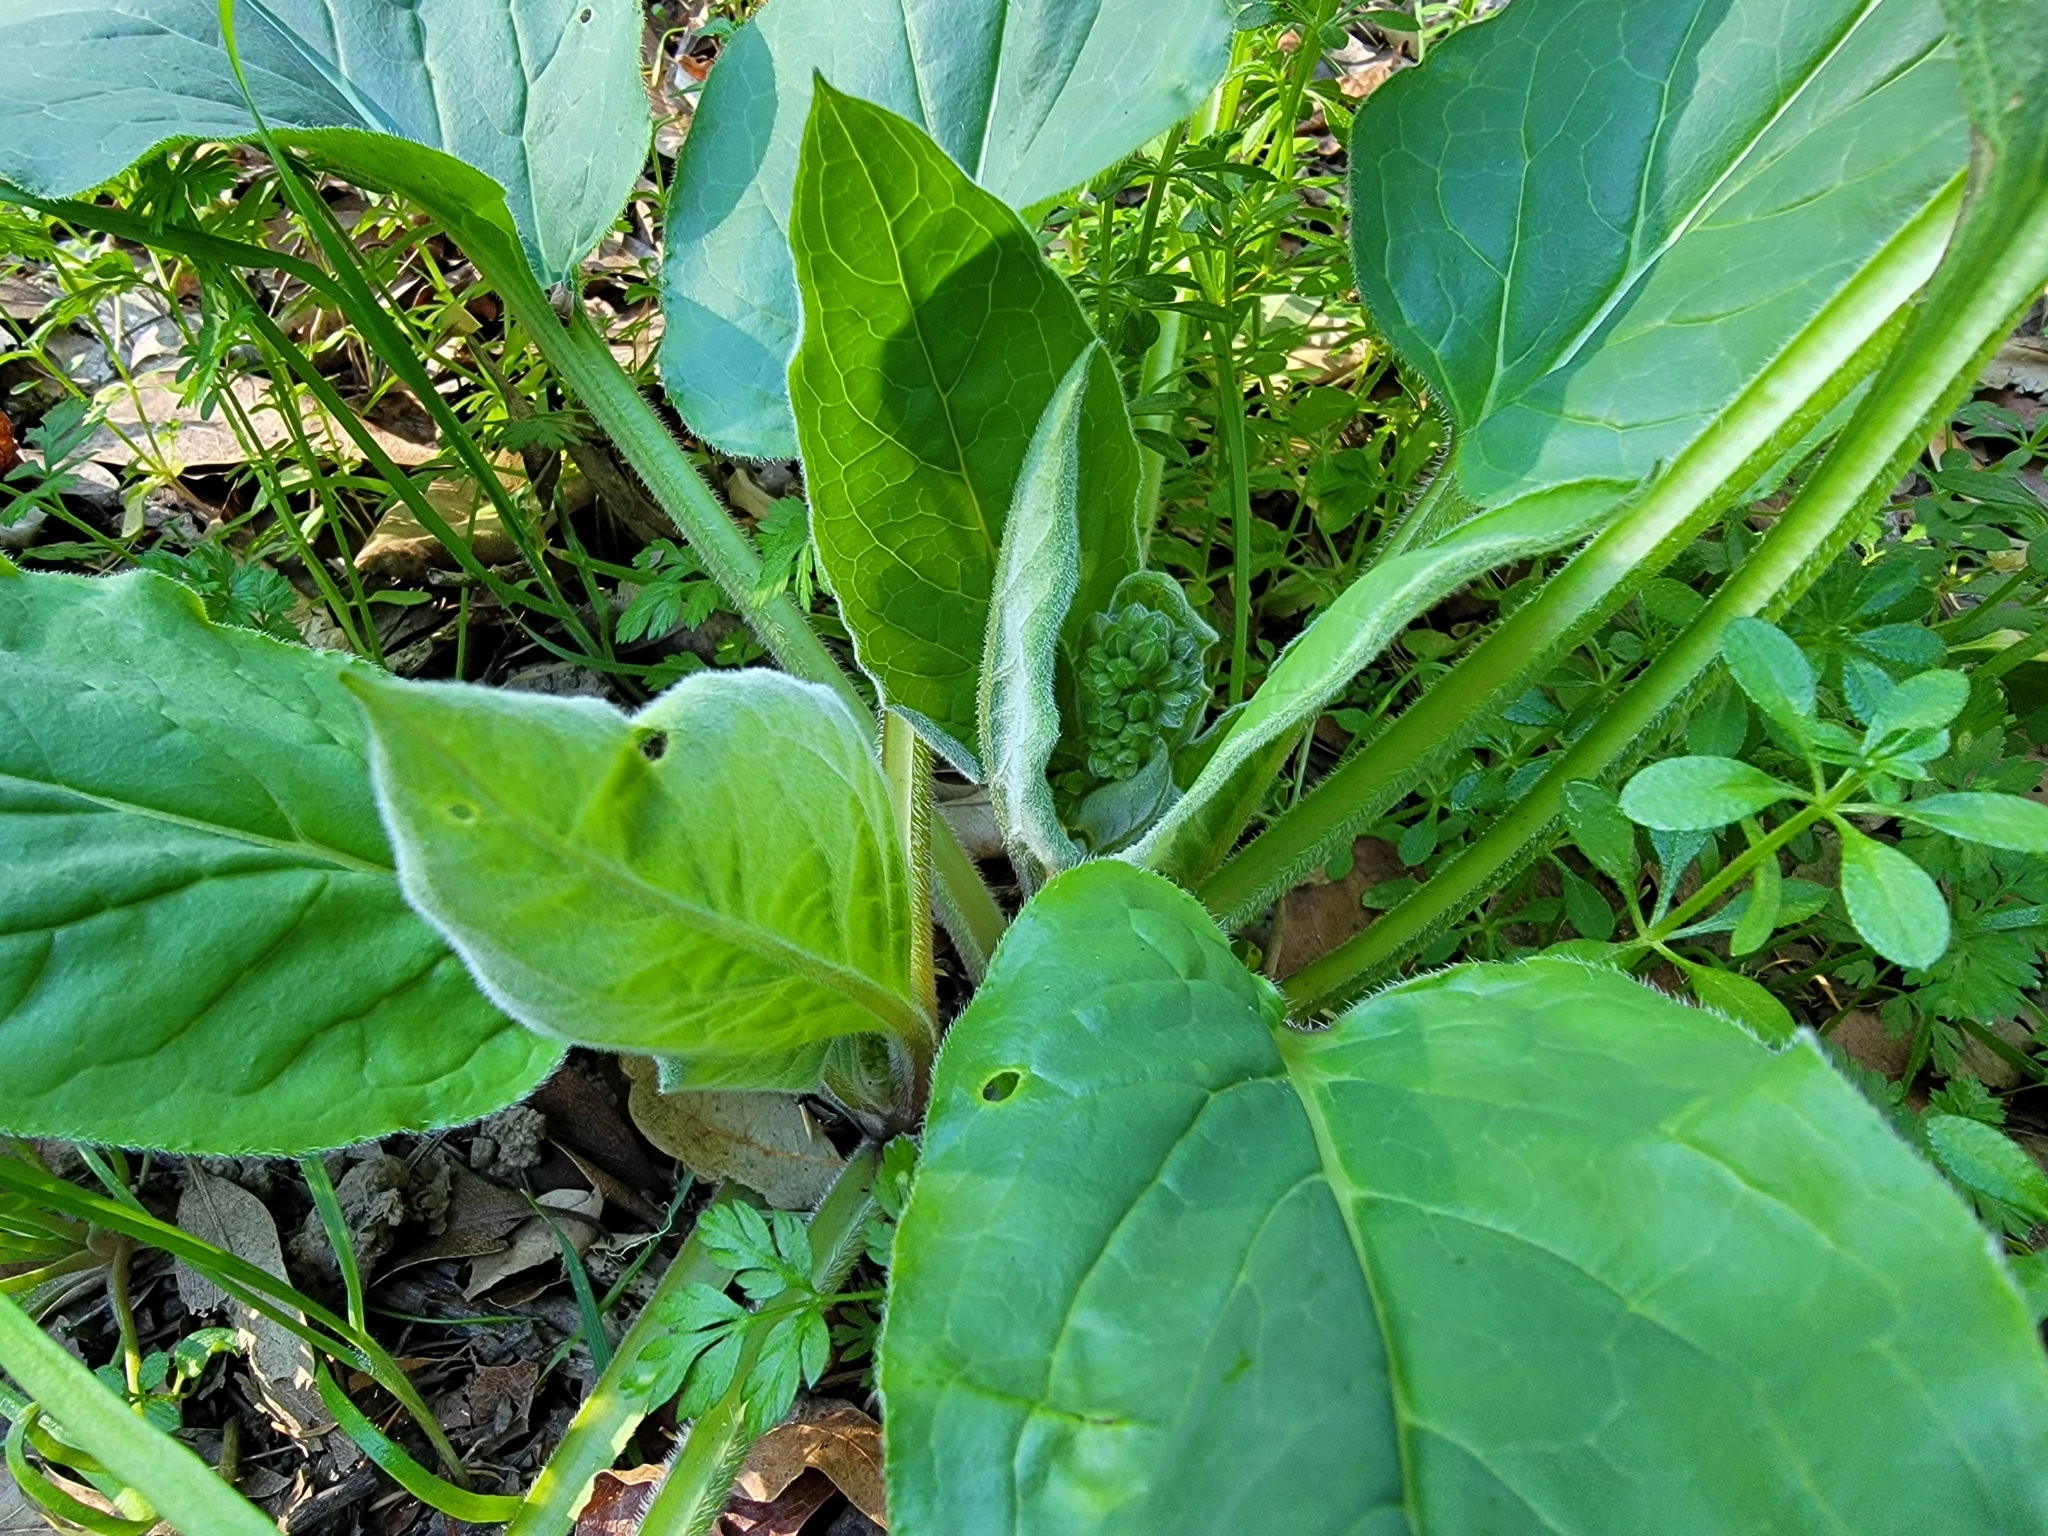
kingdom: Plantae
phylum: Tracheophyta
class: Magnoliopsida
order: Boraginales
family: Boraginaceae
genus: Adelinia
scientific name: Adelinia grande
